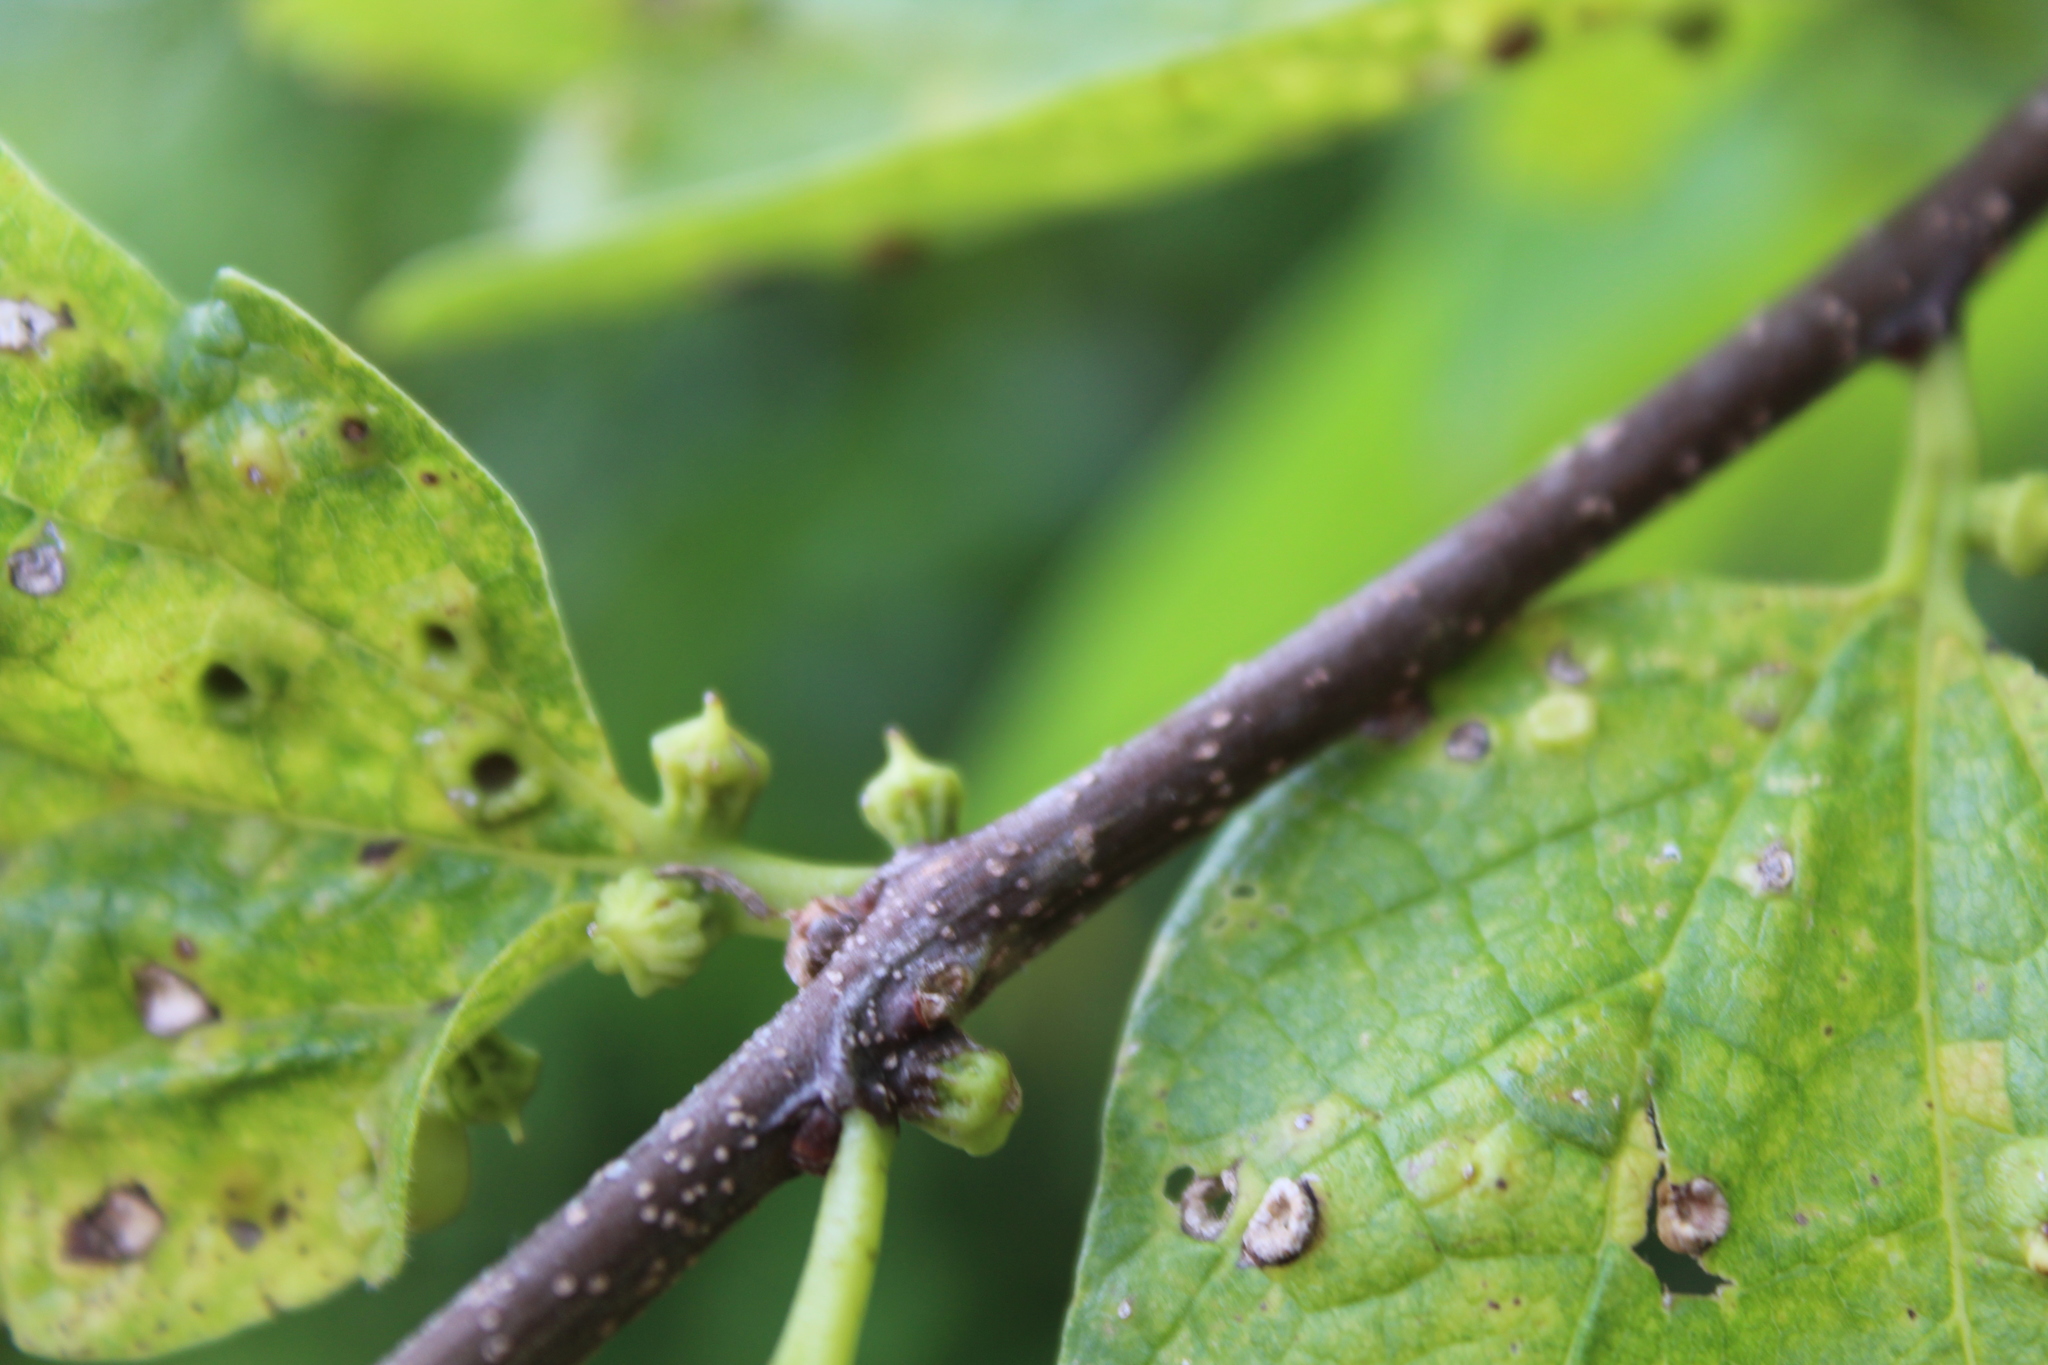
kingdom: Animalia
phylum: Arthropoda
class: Insecta
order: Diptera
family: Cecidomyiidae
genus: Celticecis
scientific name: Celticecis ramicola
